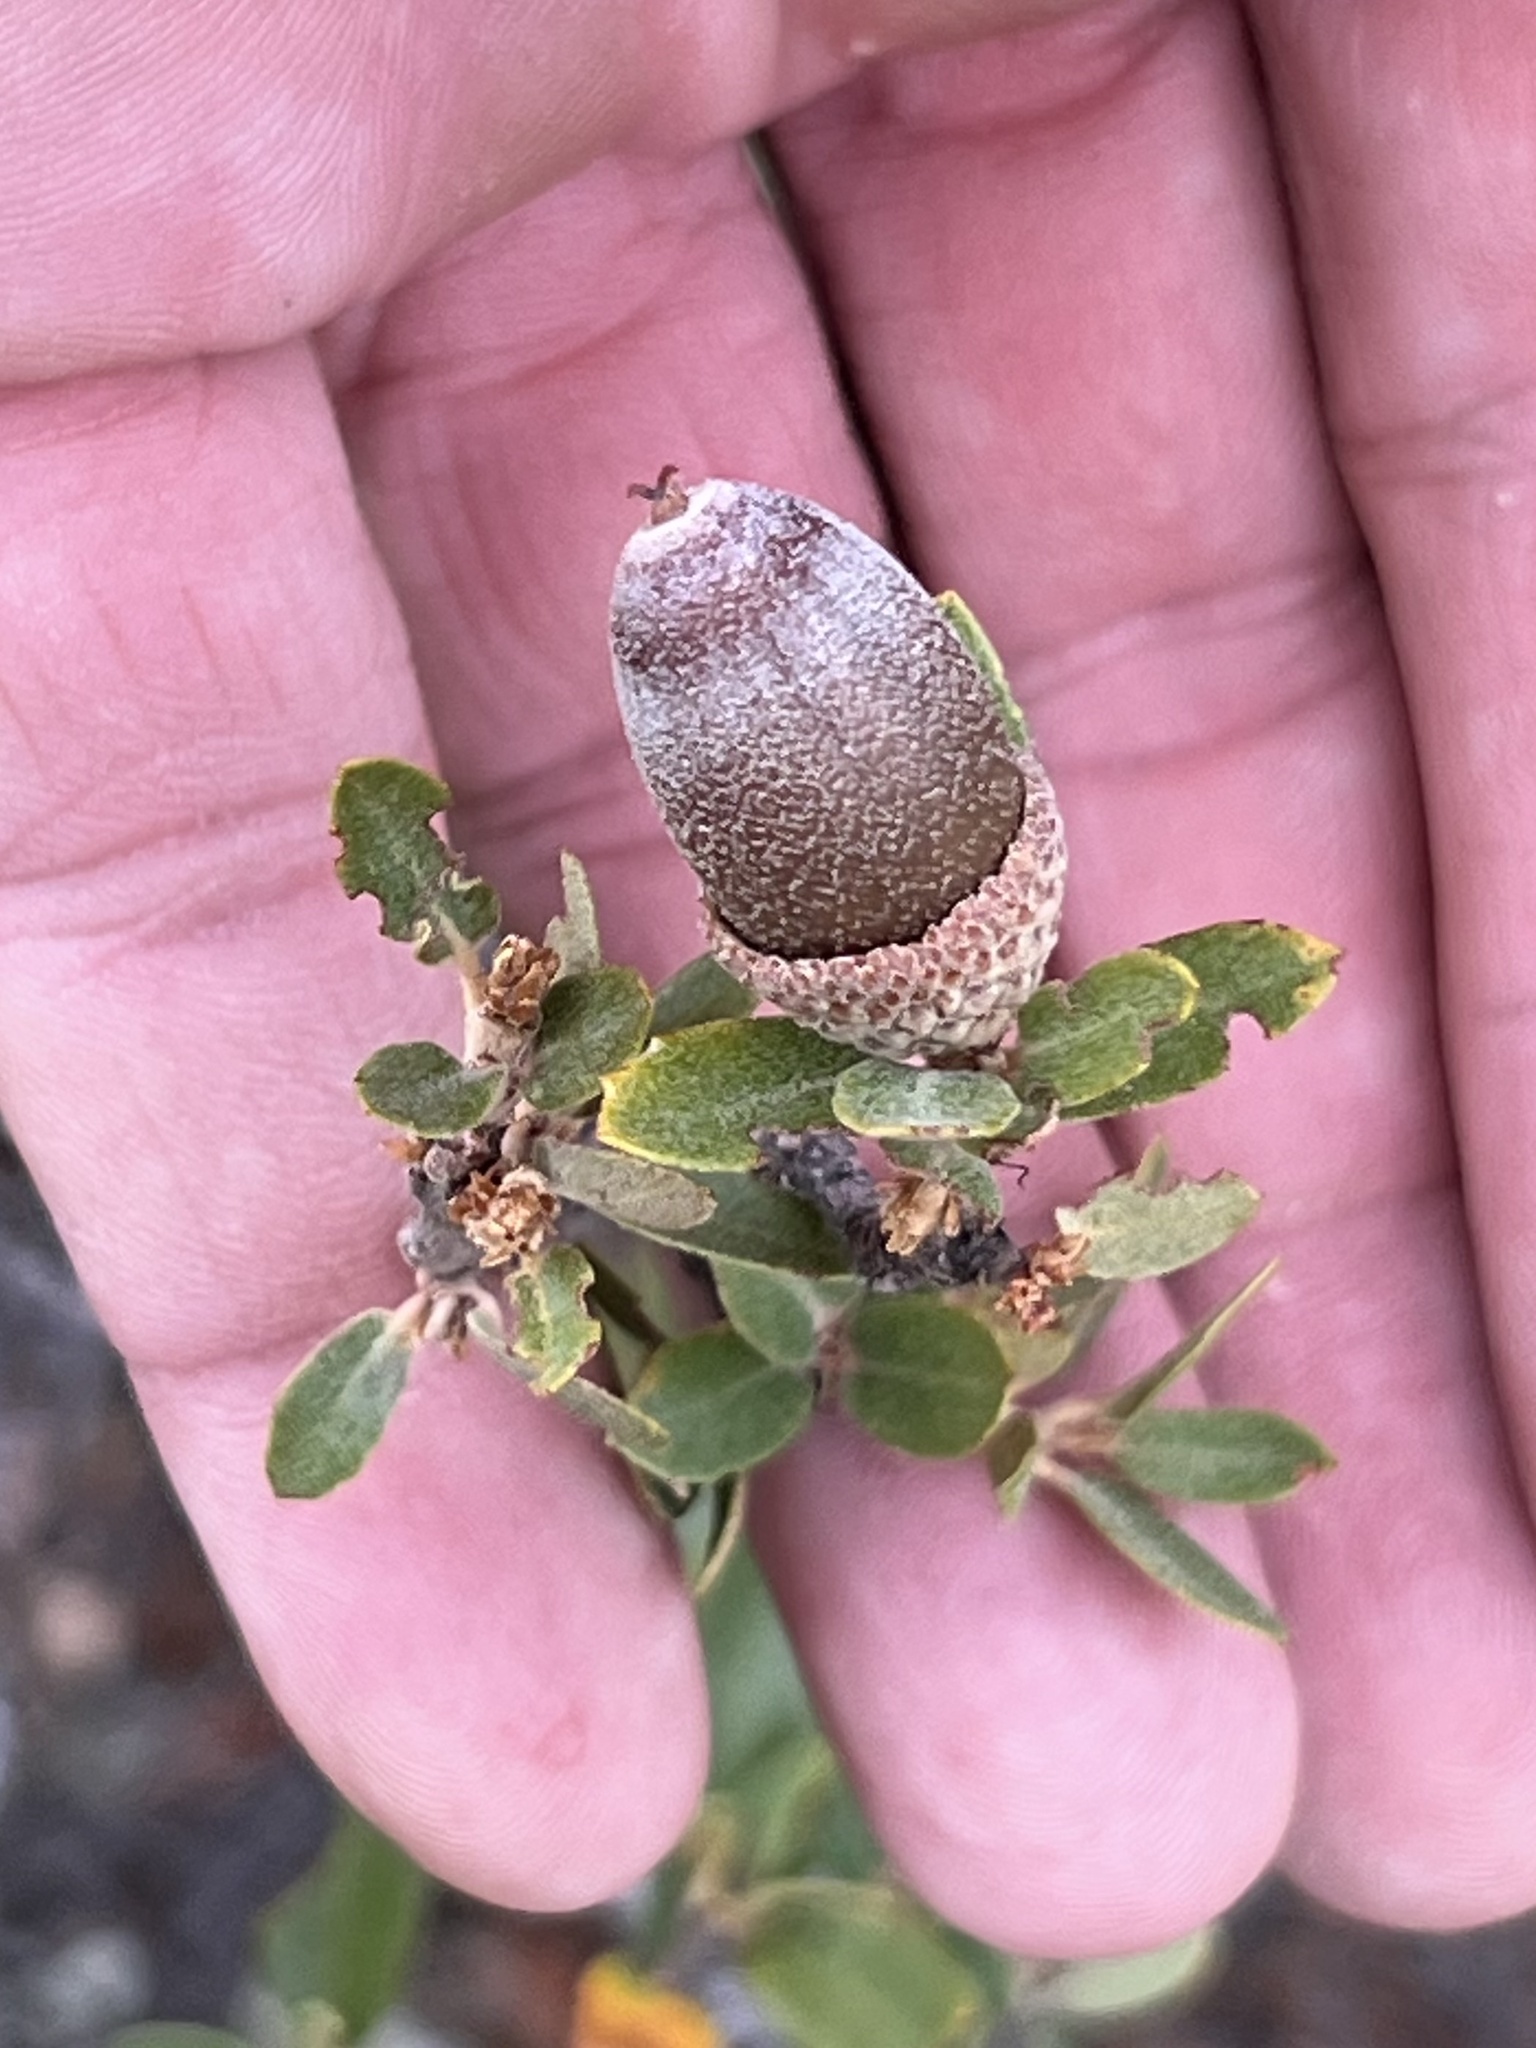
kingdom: Plantae
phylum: Tracheophyta
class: Magnoliopsida
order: Fagales
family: Fagaceae
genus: Quercus
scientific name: Quercus toumeyi
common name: Toumey oak
